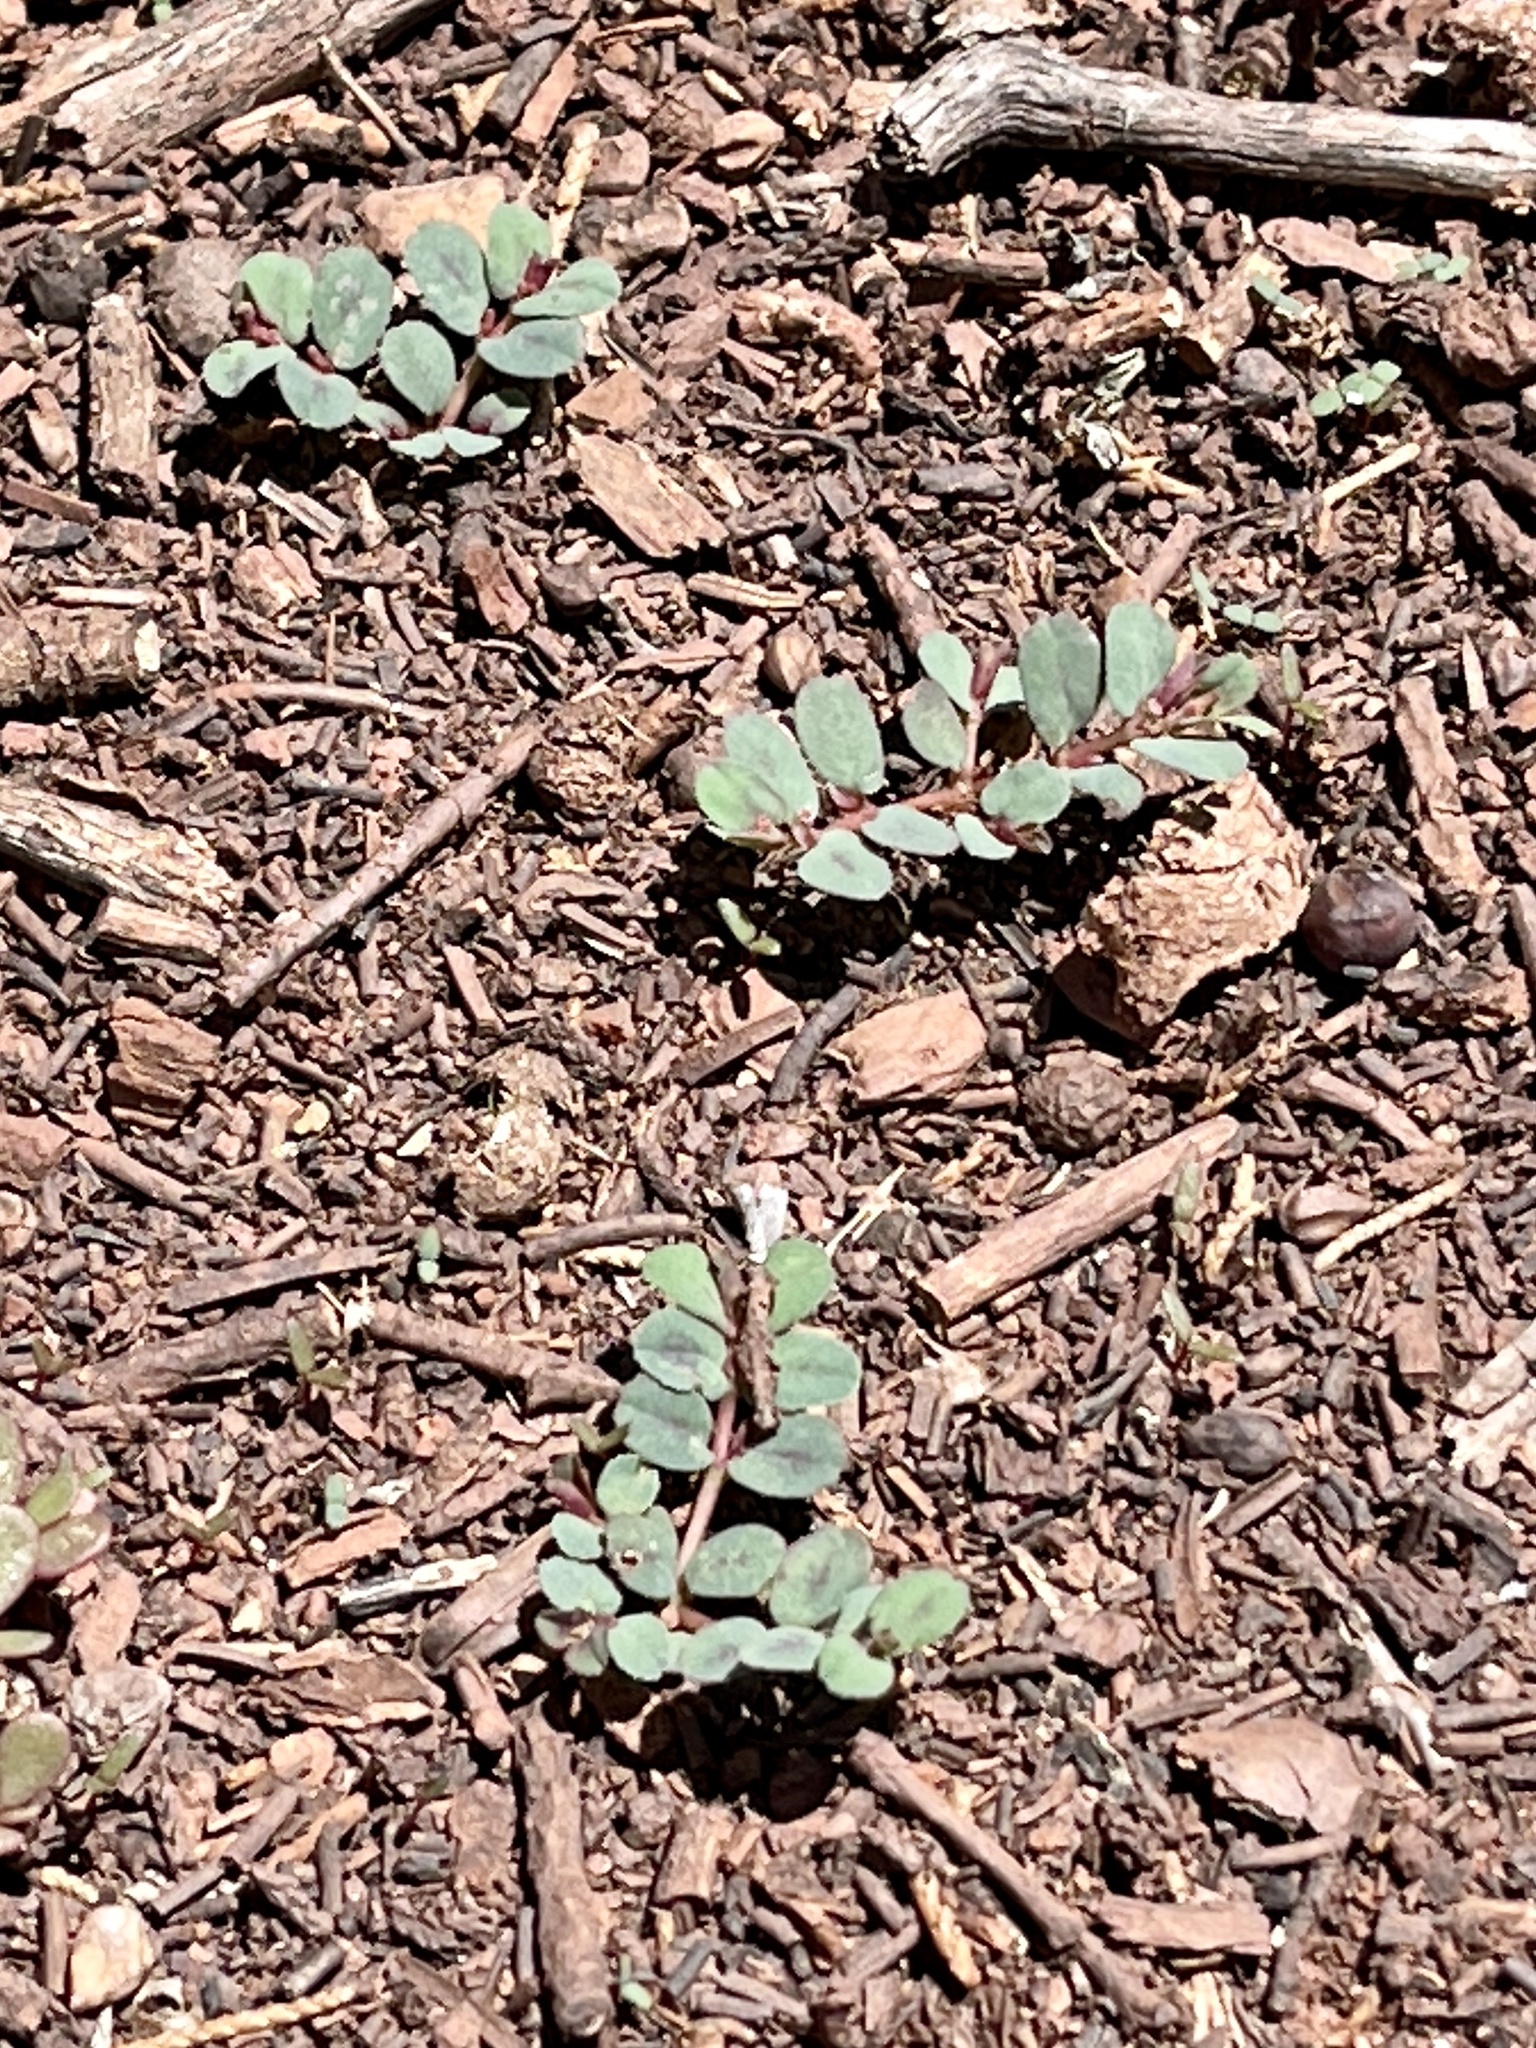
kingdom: Plantae
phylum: Tracheophyta
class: Magnoliopsida
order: Malpighiales
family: Euphorbiaceae
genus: Euphorbia
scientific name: Euphorbia serpillifolia
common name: Thyme-leaf spurge
